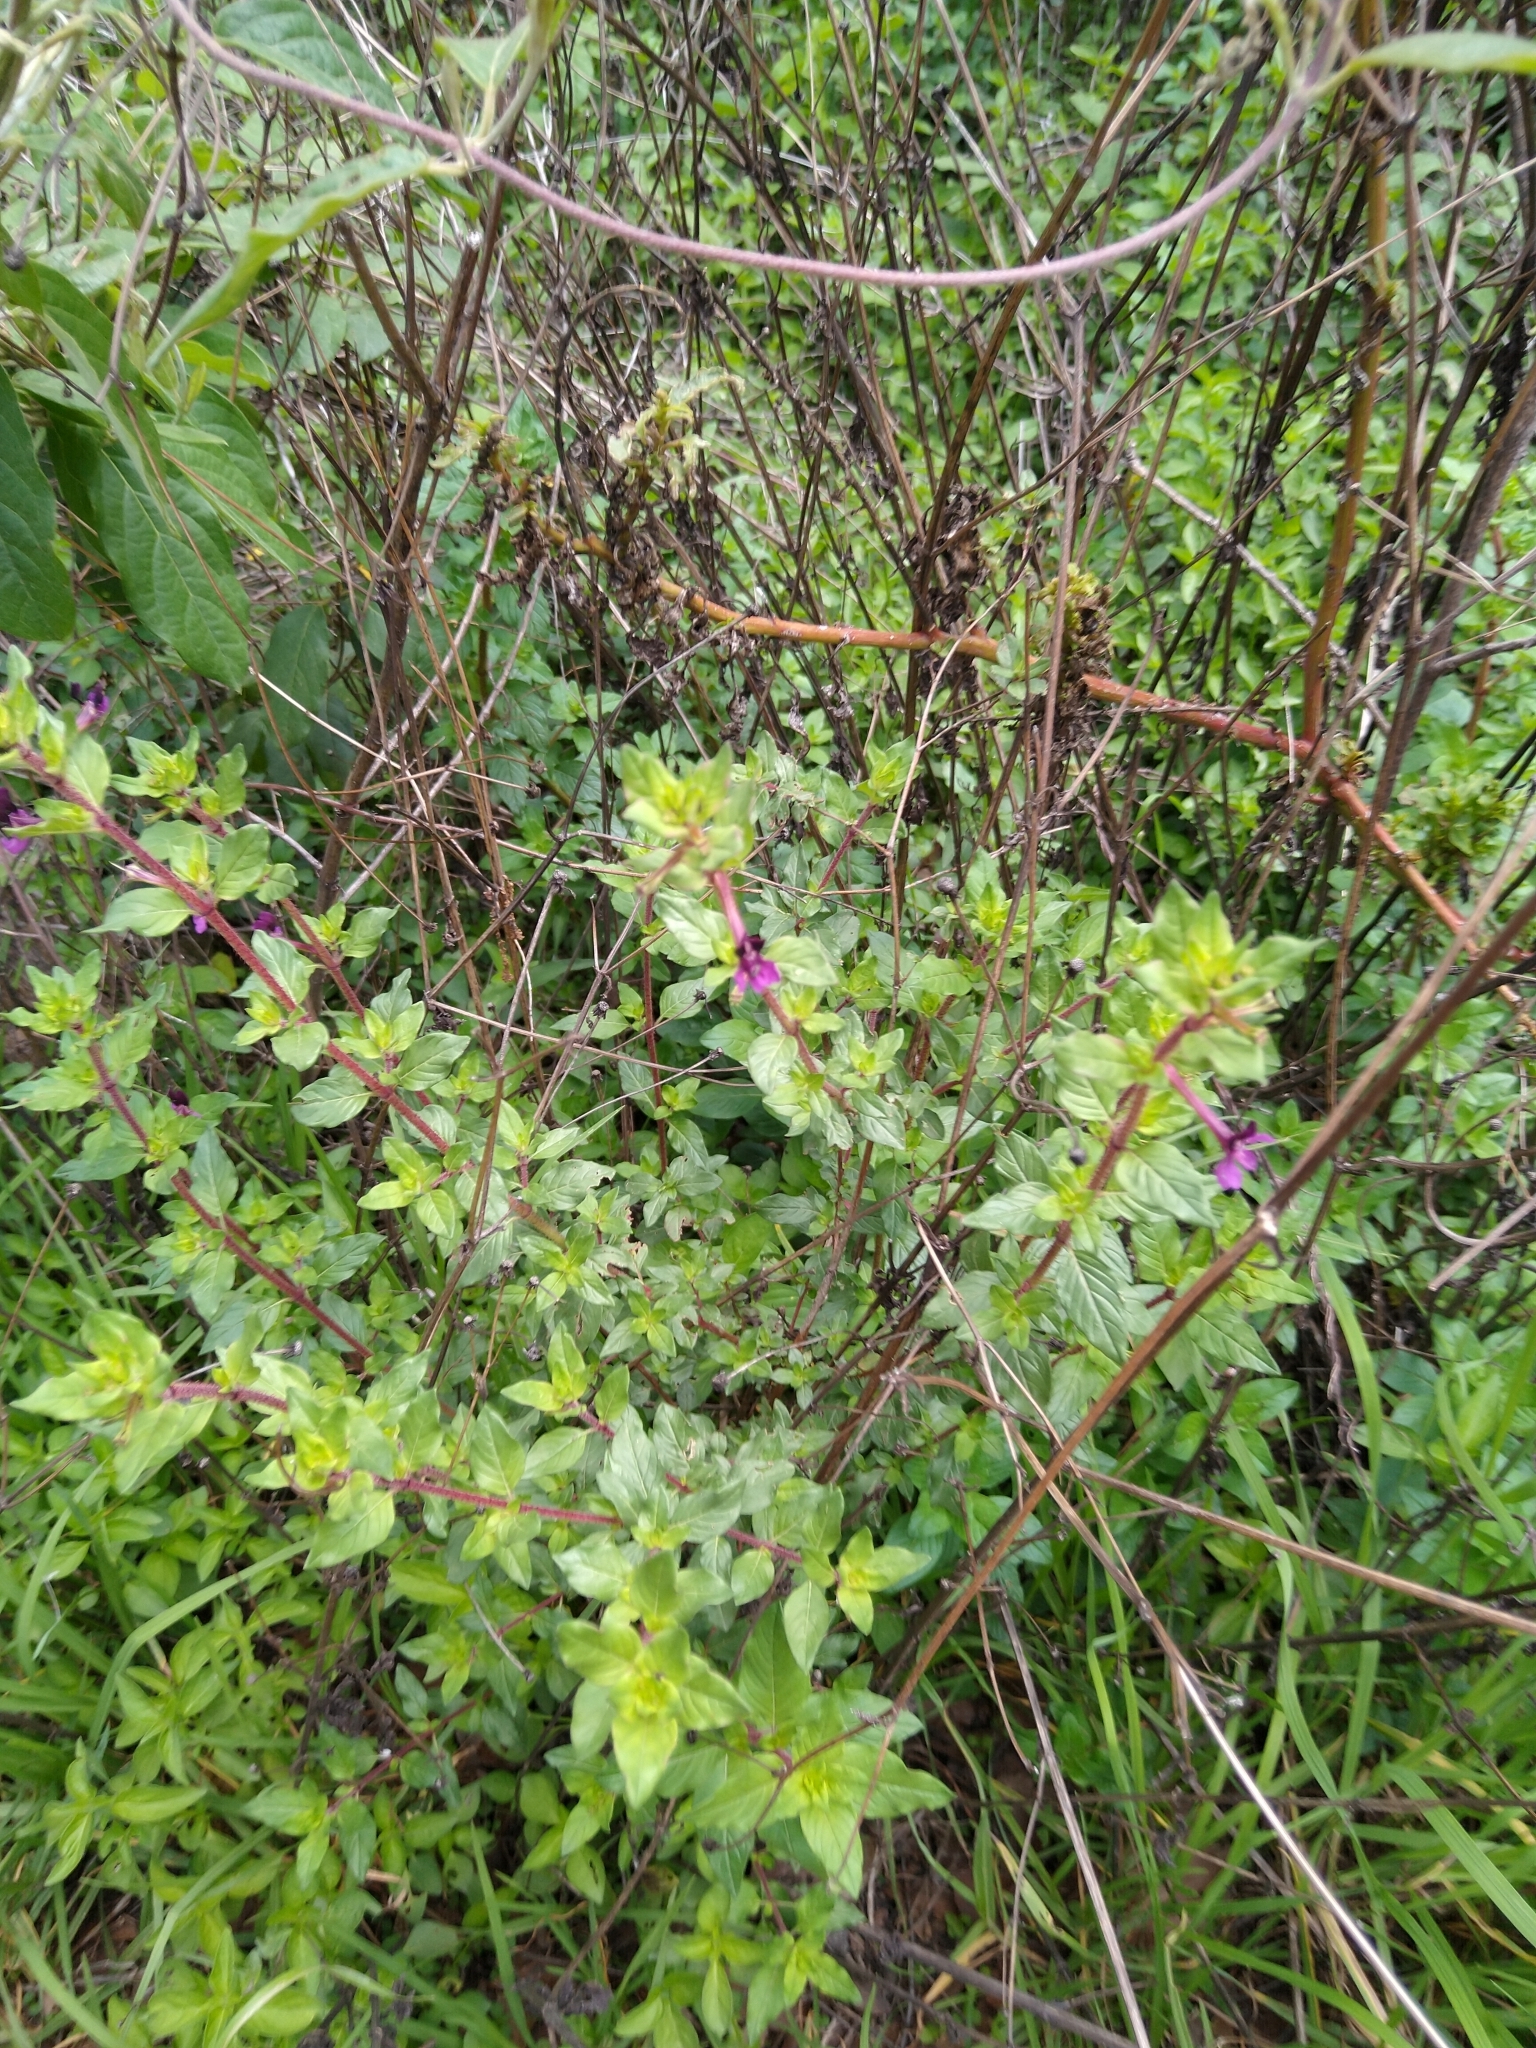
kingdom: Plantae
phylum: Tracheophyta
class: Magnoliopsida
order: Myrtales
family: Lythraceae
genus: Cuphea
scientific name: Cuphea aequipetala
